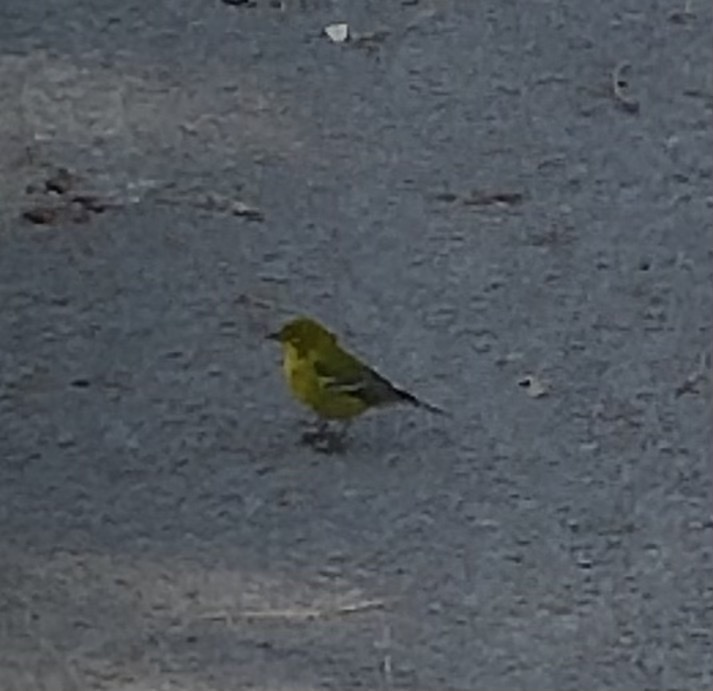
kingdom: Animalia
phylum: Chordata
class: Aves
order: Passeriformes
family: Parulidae
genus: Setophaga
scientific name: Setophaga pinus
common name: Pine warbler
